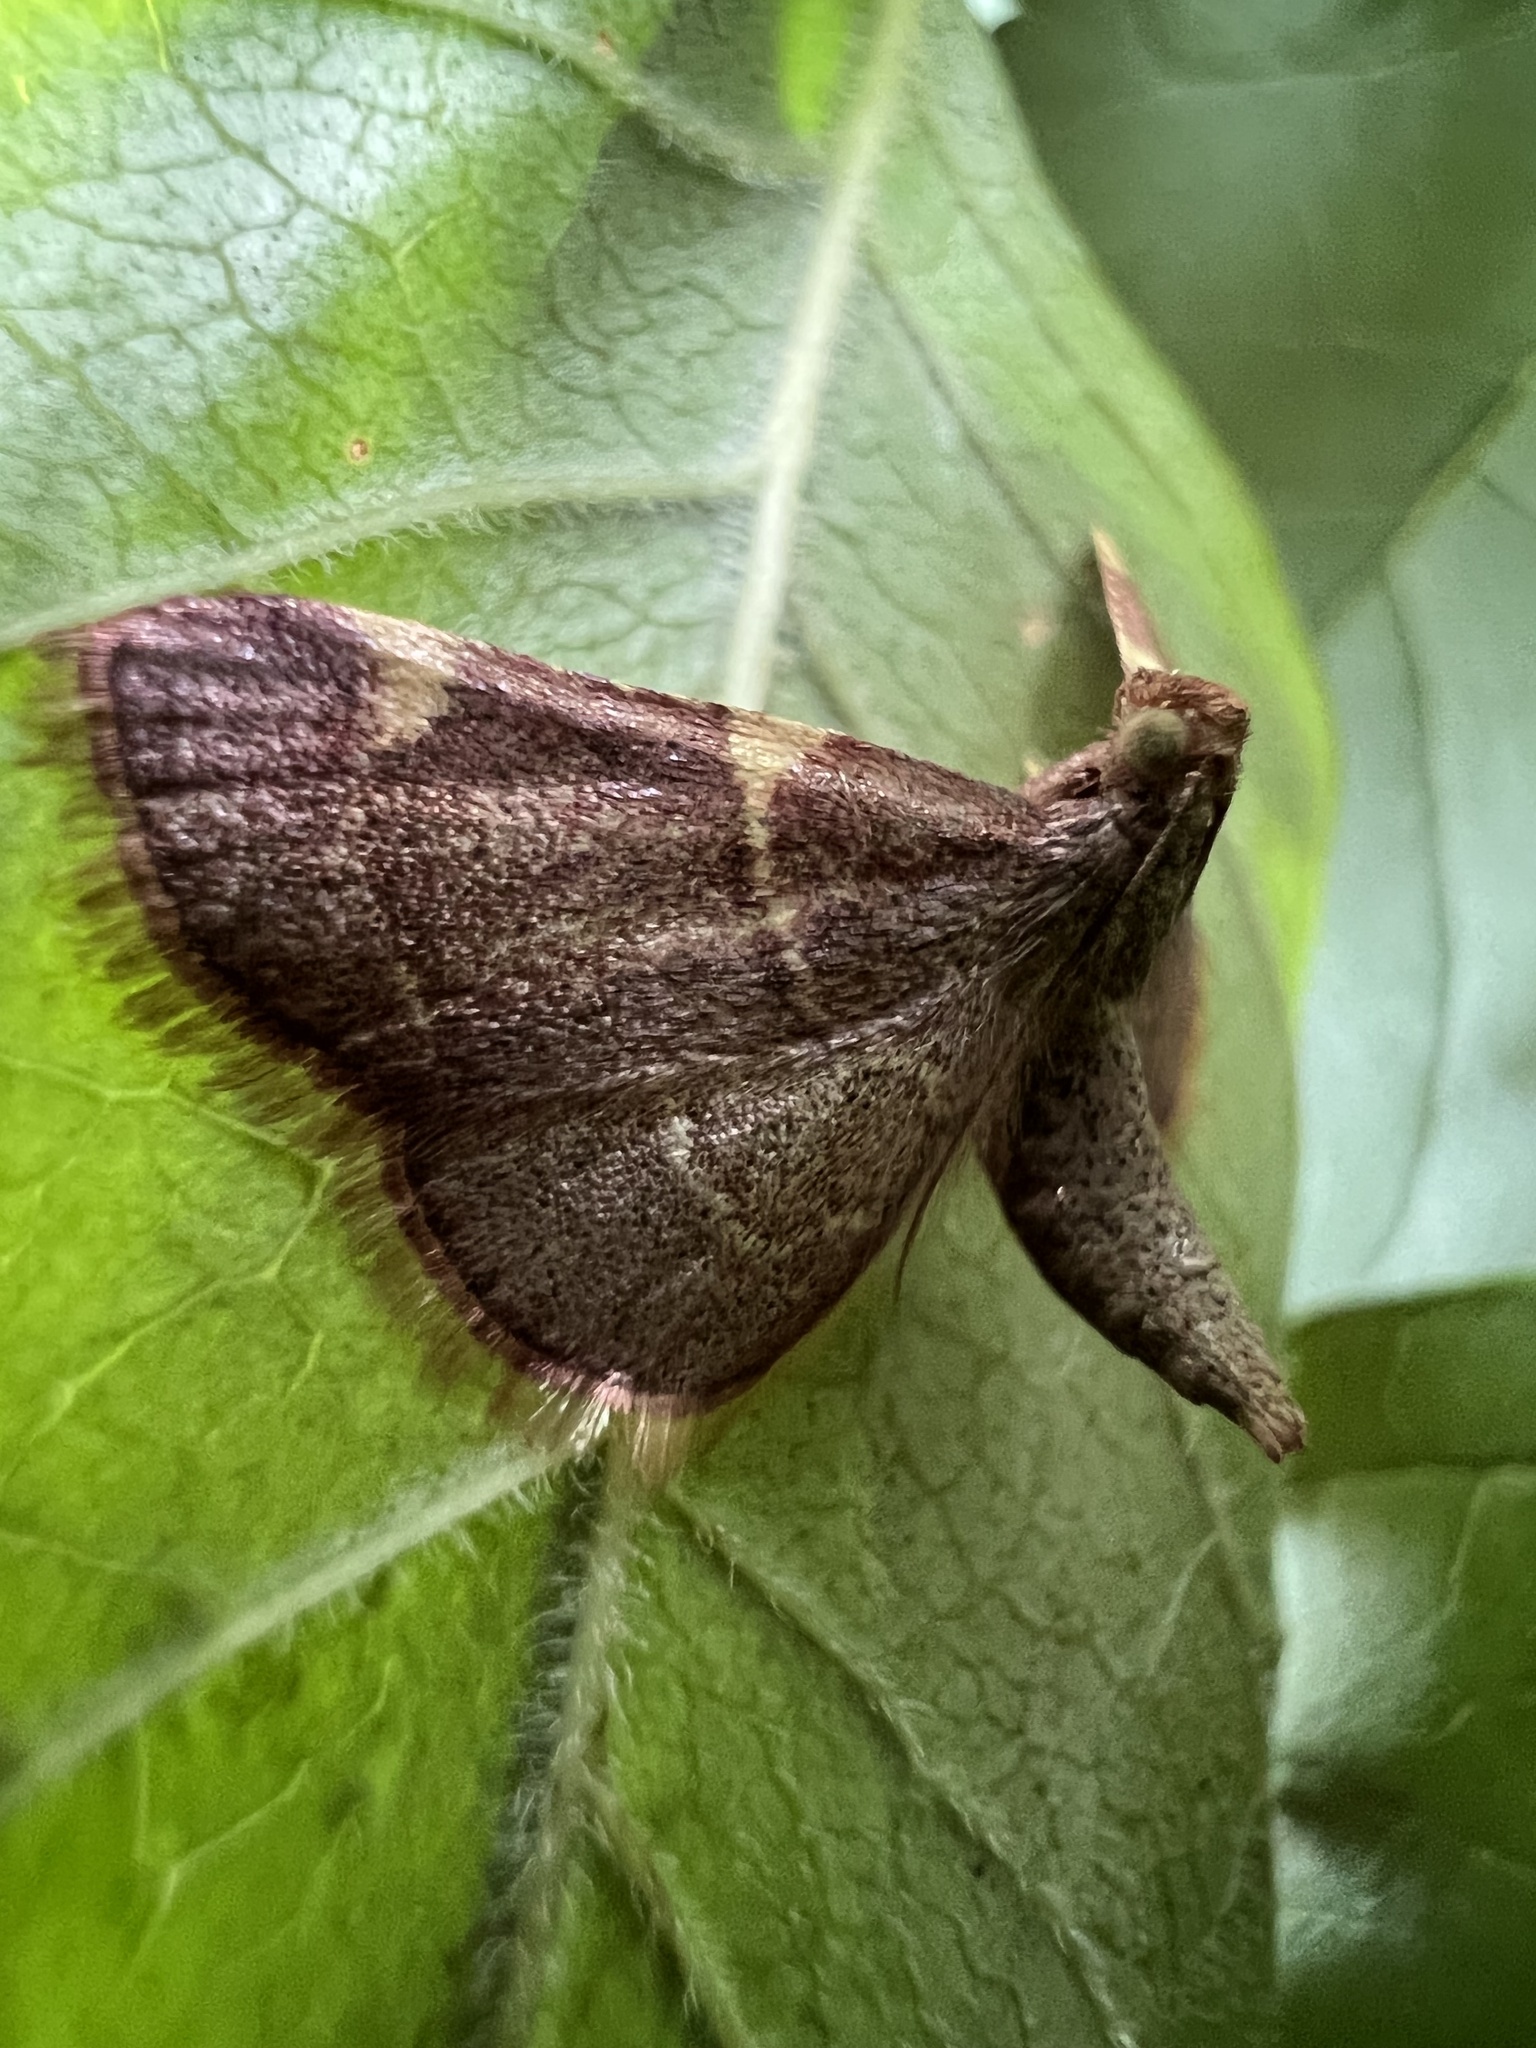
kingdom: Animalia
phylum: Arthropoda
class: Insecta
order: Lepidoptera
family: Pyralidae
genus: Hypsopygia
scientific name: Hypsopygia olinalis
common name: Yellow-fringed dolichomia moth
